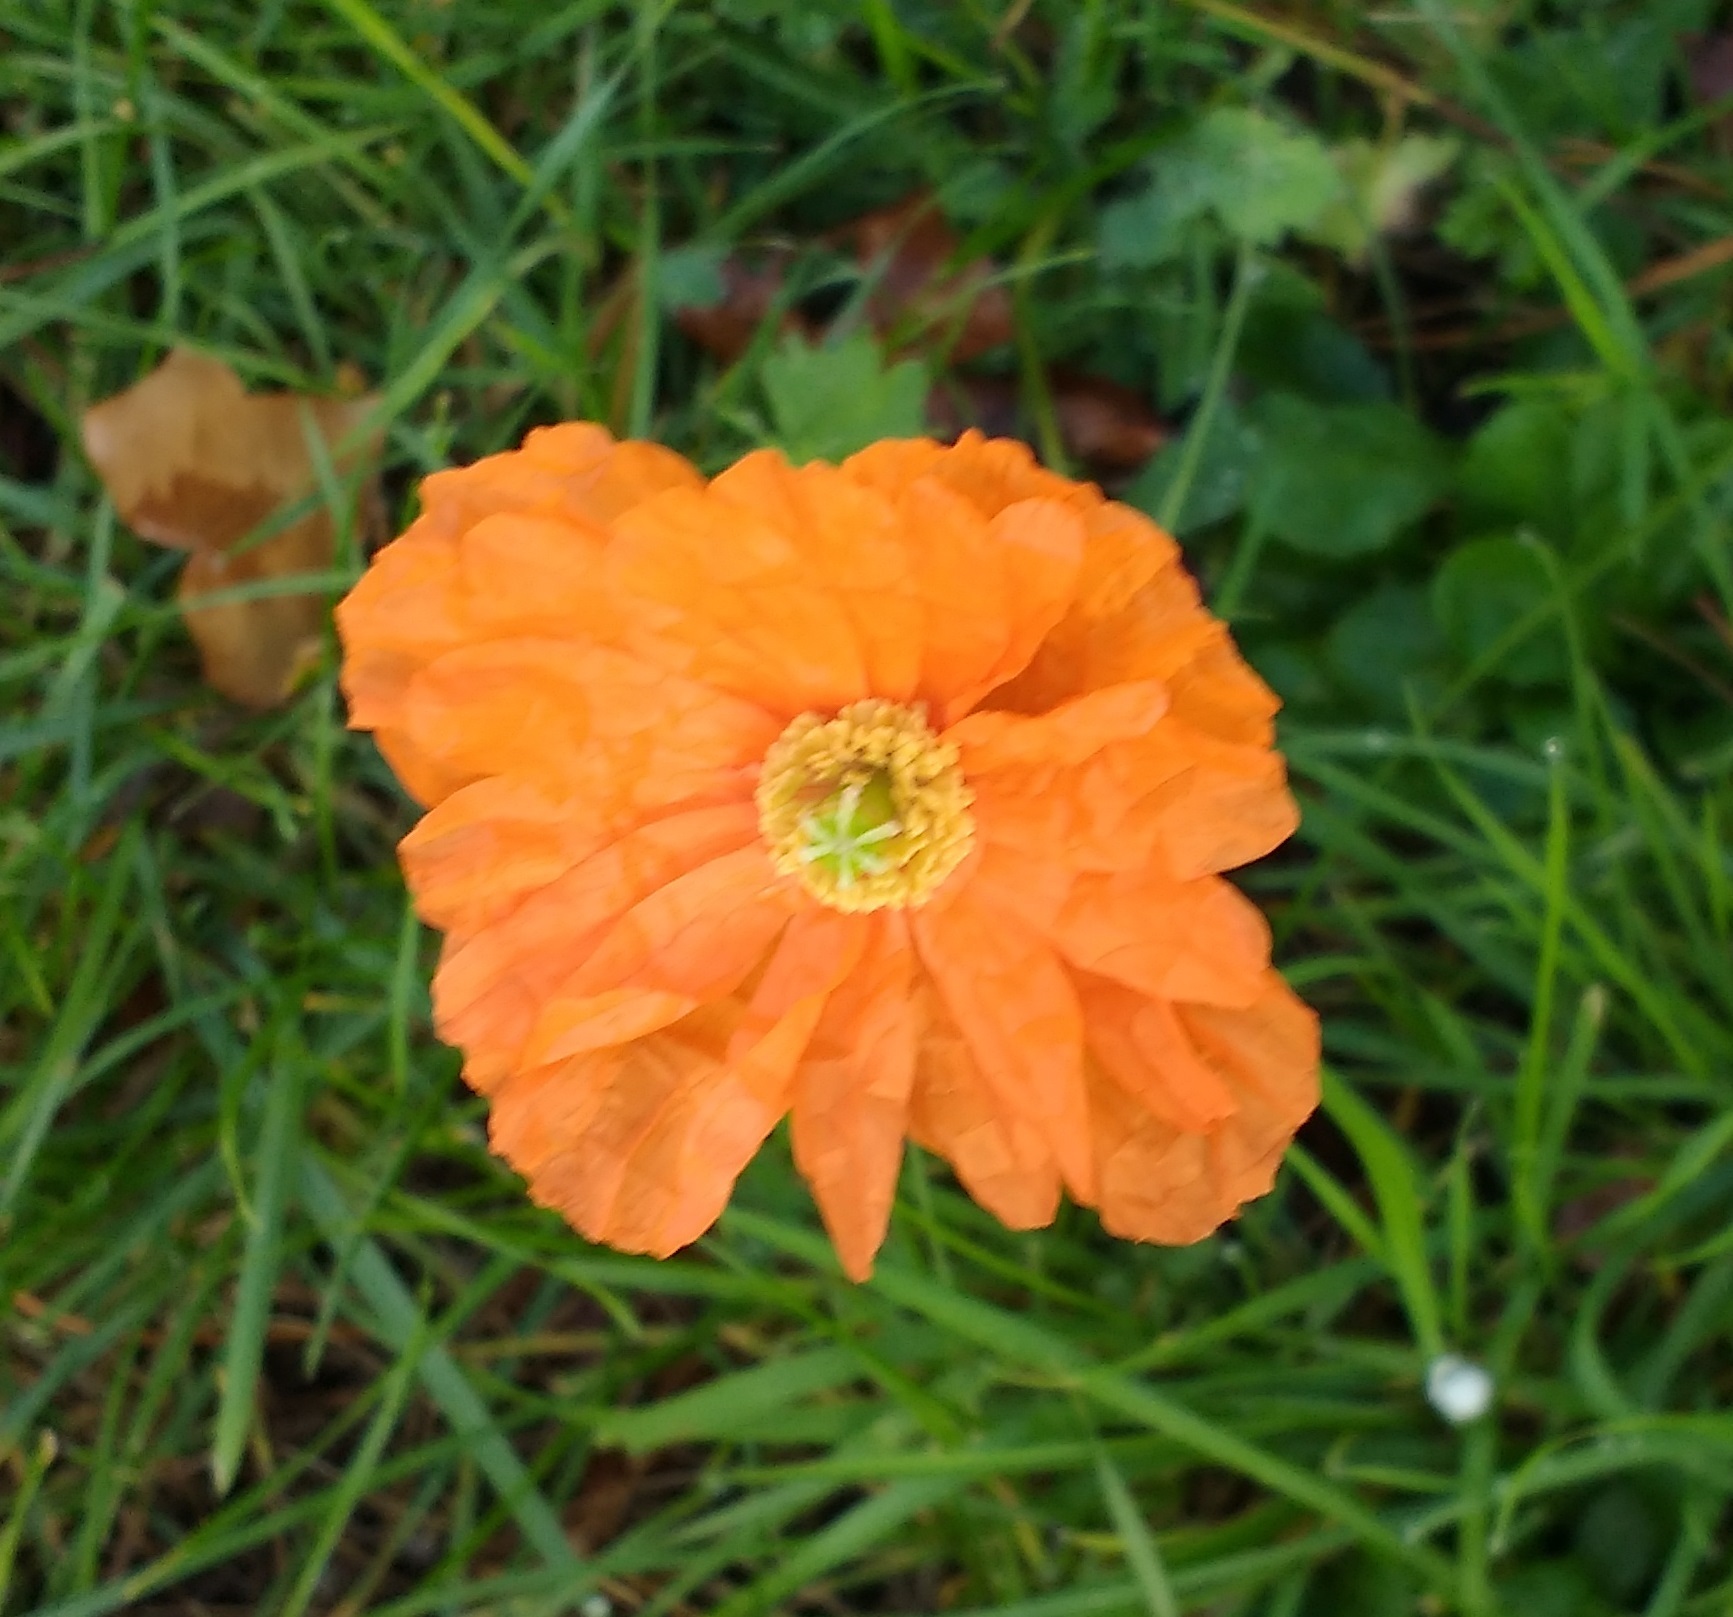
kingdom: Plantae
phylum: Tracheophyta
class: Magnoliopsida
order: Ranunculales
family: Papaveraceae
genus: Papaver
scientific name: Papaver atlanticum
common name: Atlas poppy
